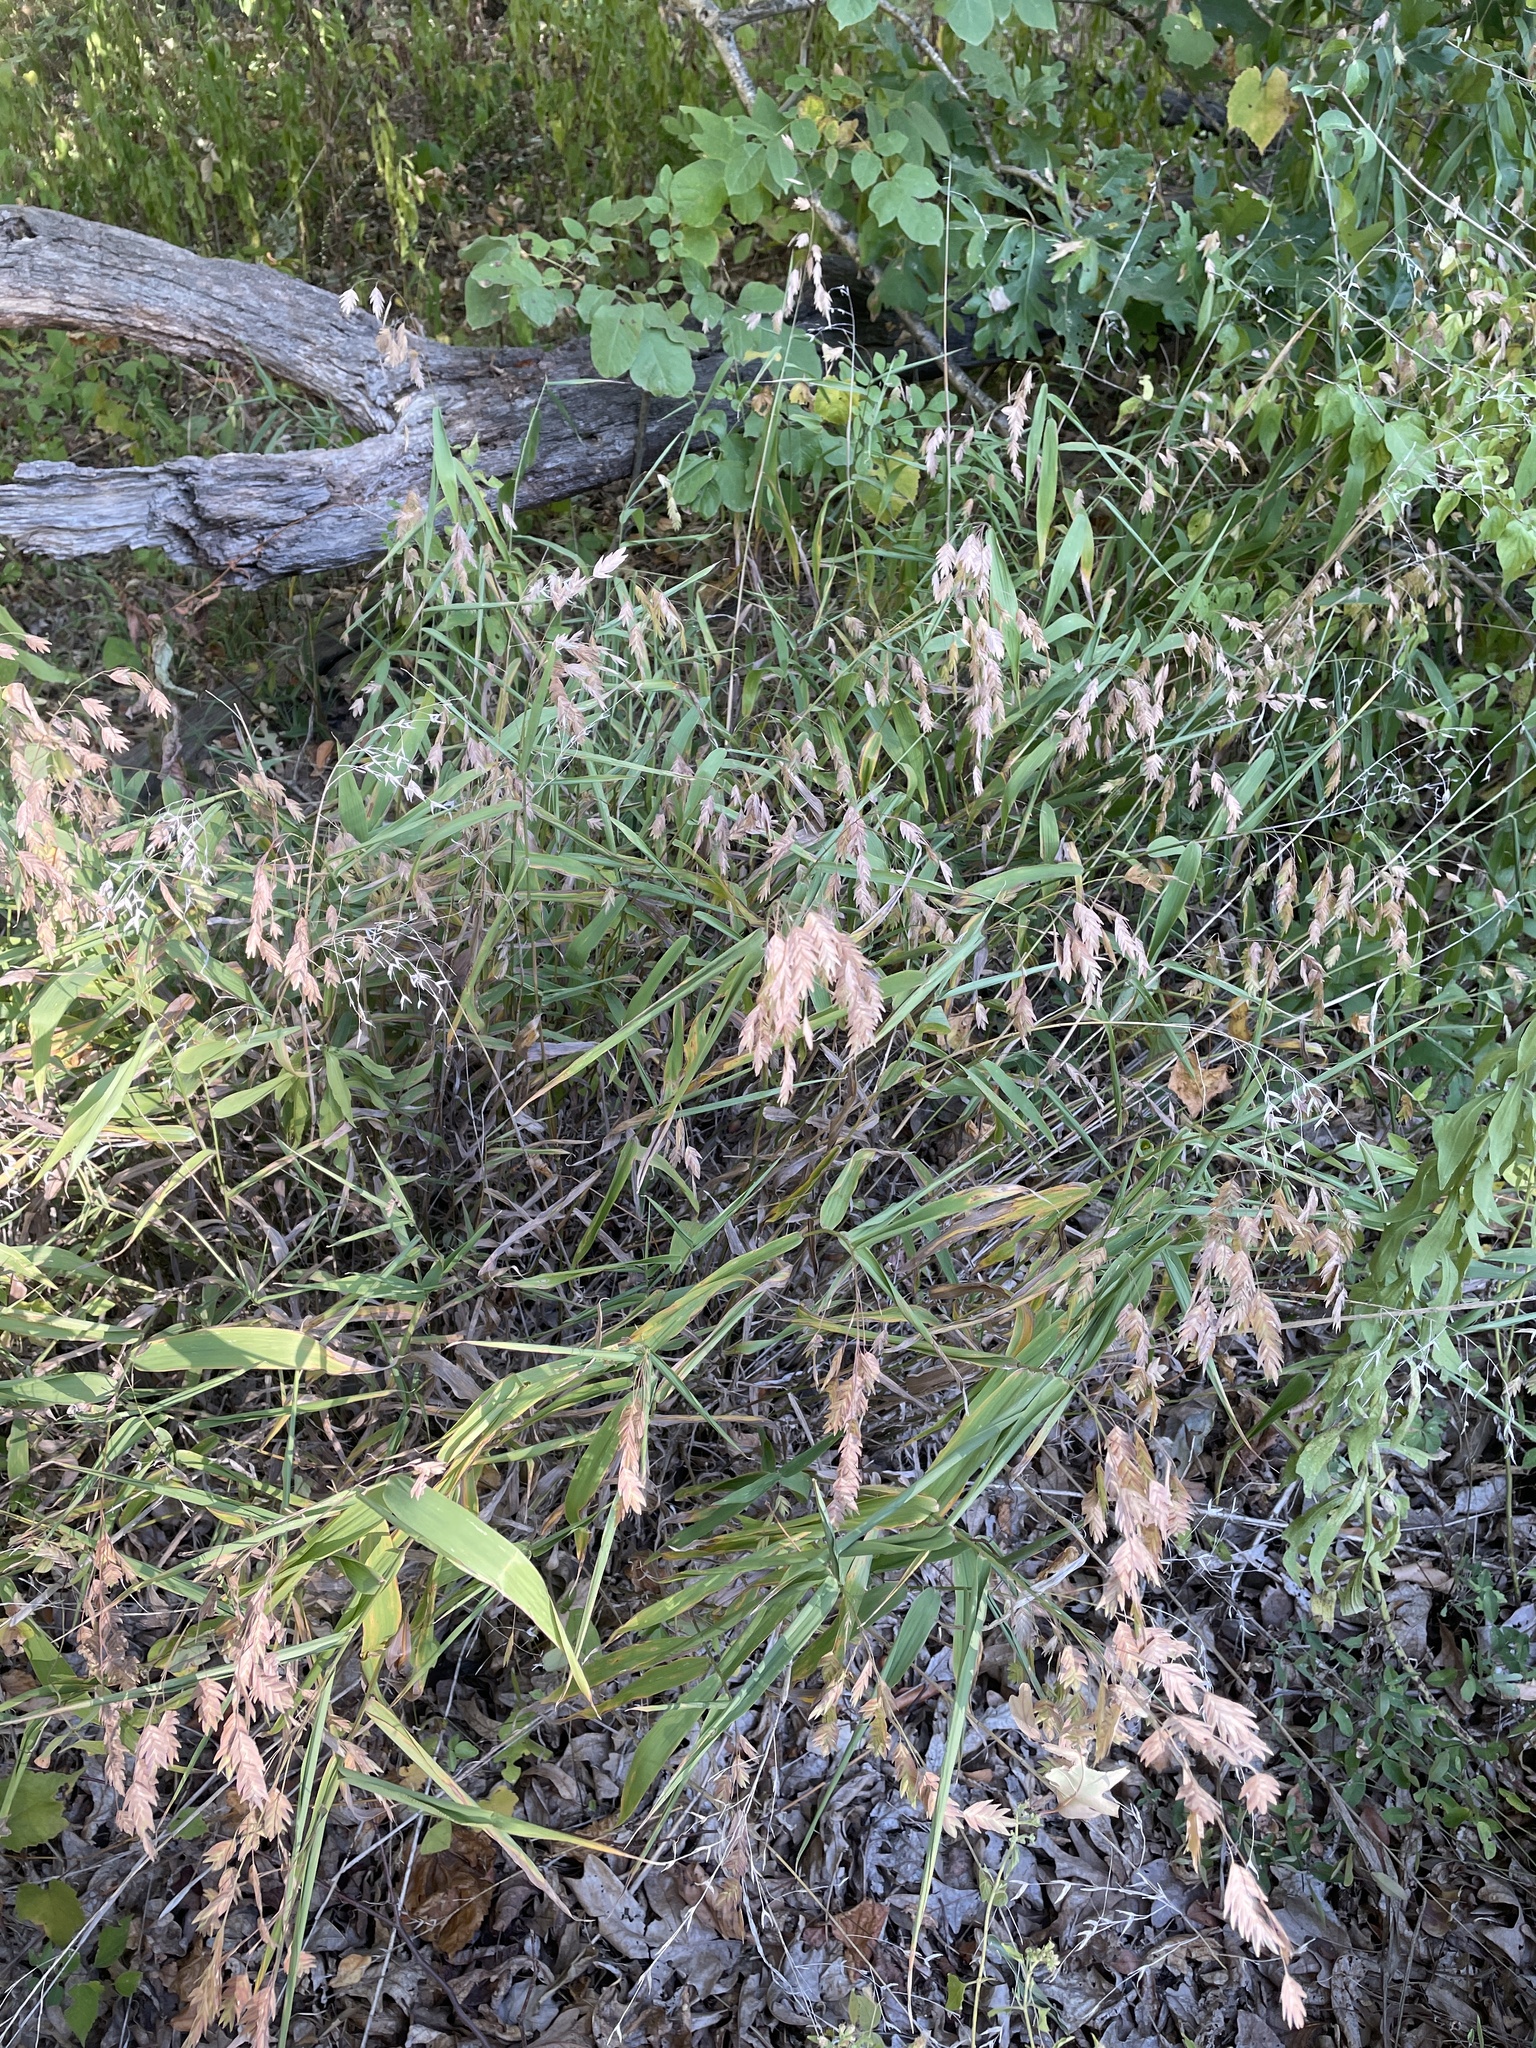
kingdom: Plantae
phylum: Tracheophyta
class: Liliopsida
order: Poales
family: Poaceae
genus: Chasmanthium
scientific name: Chasmanthium latifolium
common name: Broad-leaved chasmanthium
